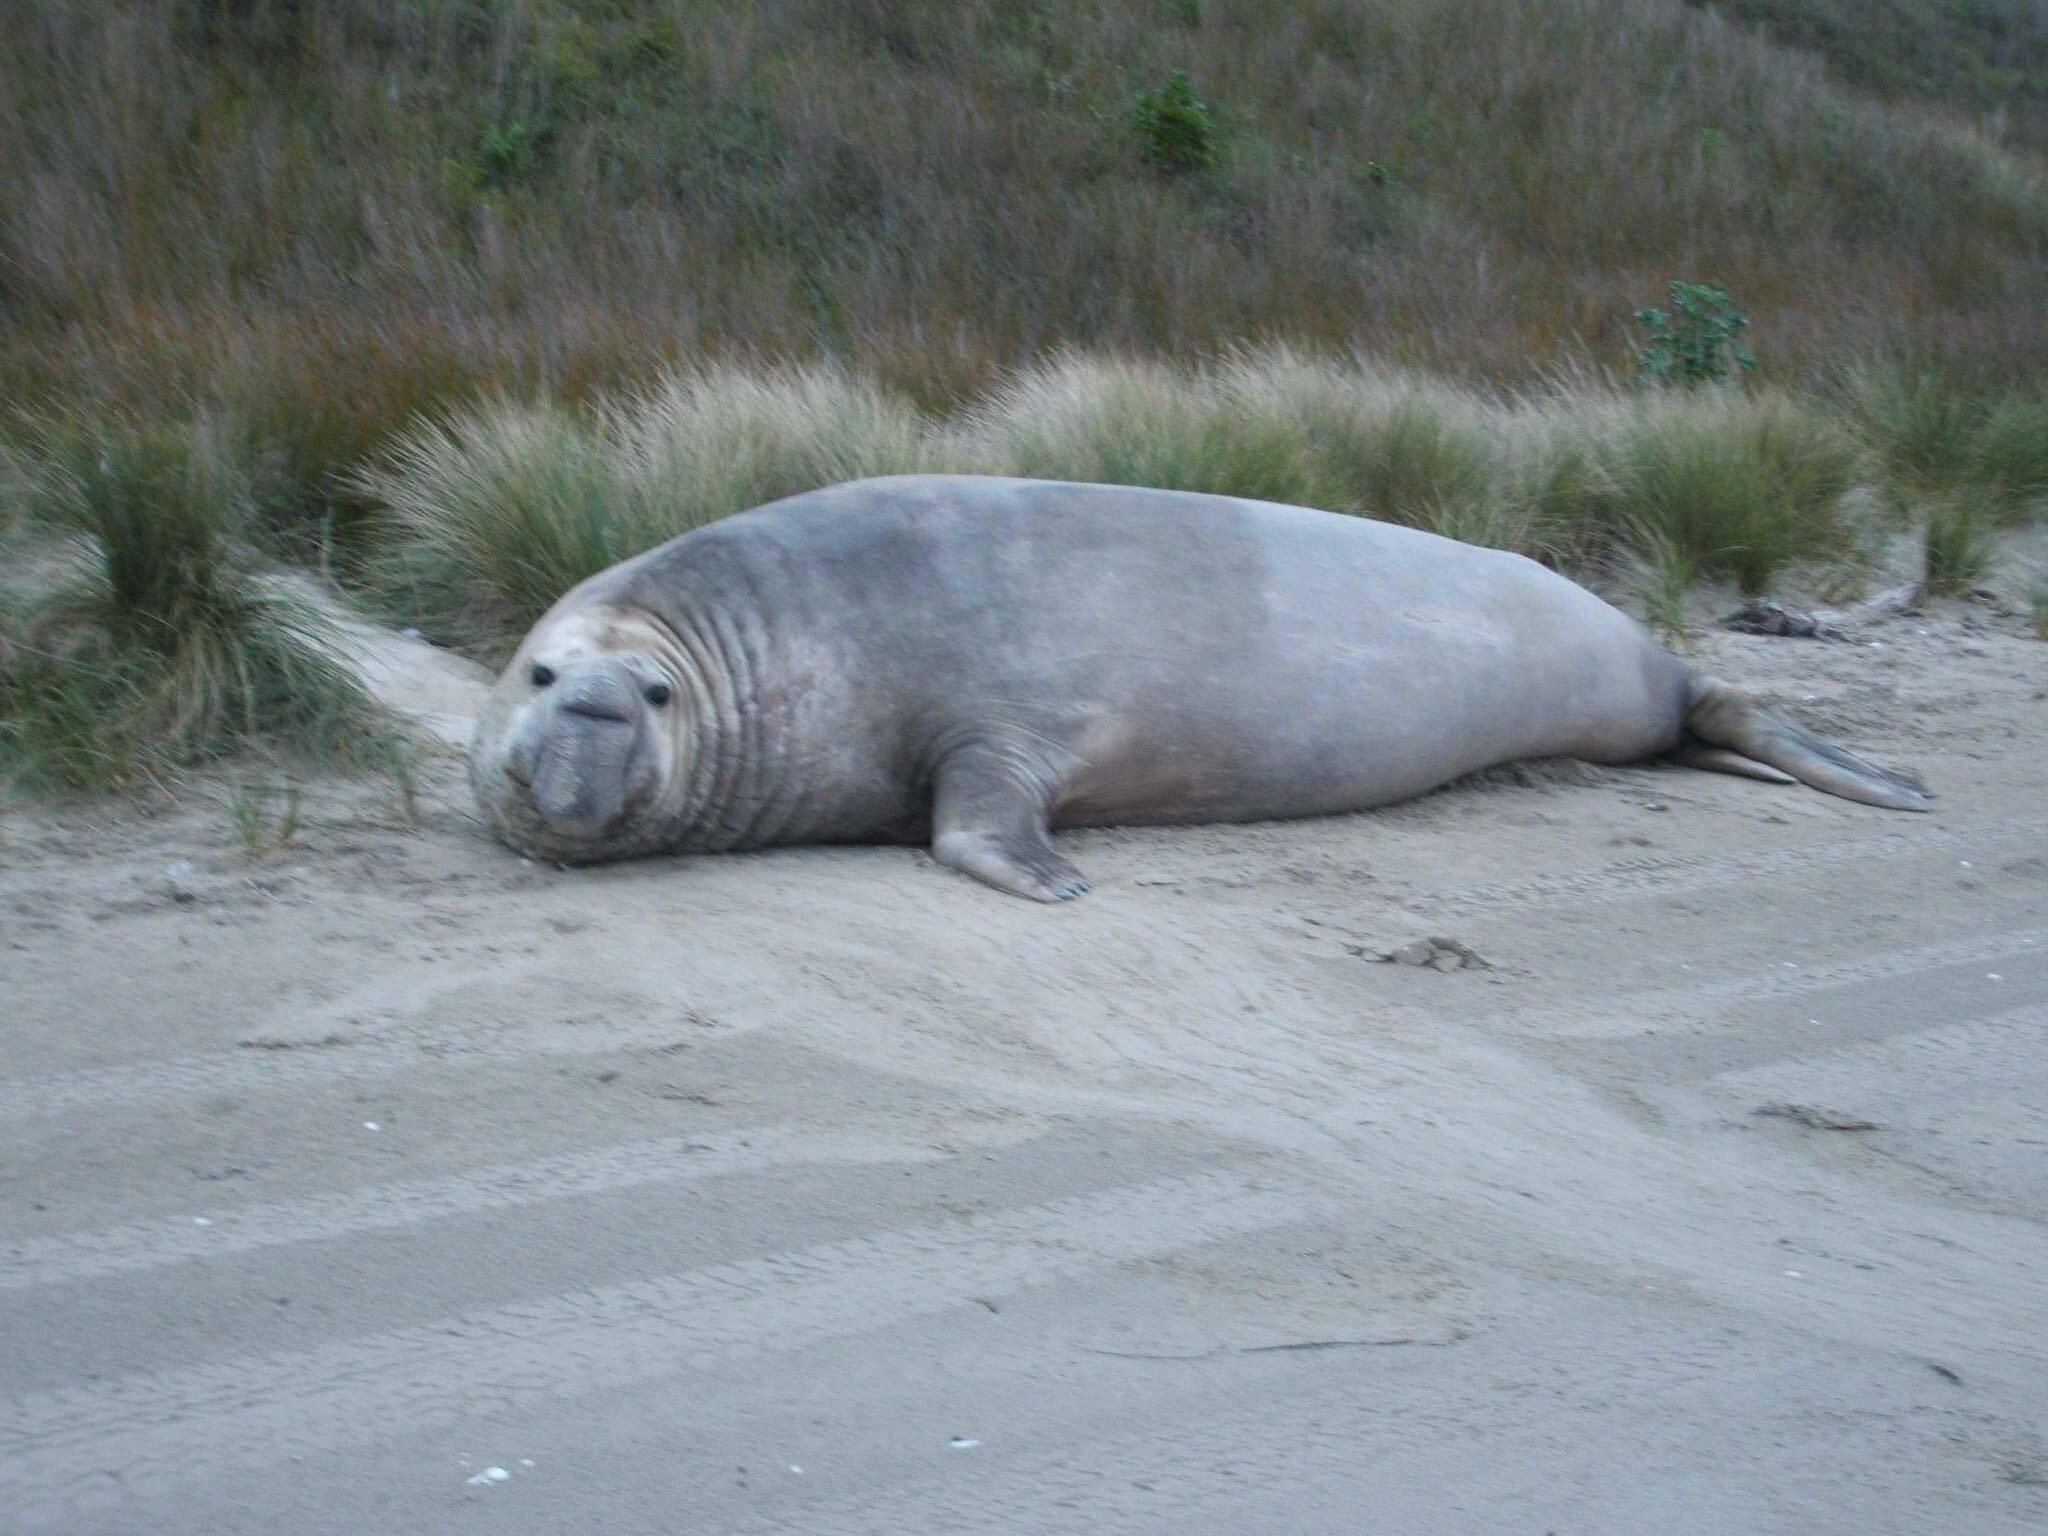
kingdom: Animalia
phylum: Chordata
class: Mammalia
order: Carnivora
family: Phocidae
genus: Mirounga
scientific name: Mirounga leonina
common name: Southern elephant seal
